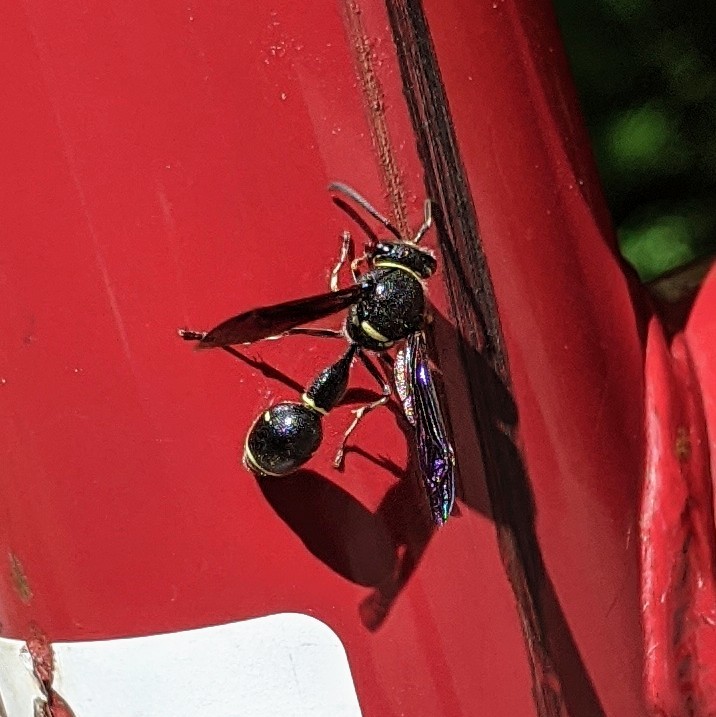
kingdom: Animalia
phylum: Arthropoda
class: Insecta
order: Hymenoptera
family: Vespidae
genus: Eumenes
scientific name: Eumenes fraternus
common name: Fraternal potter wasp
